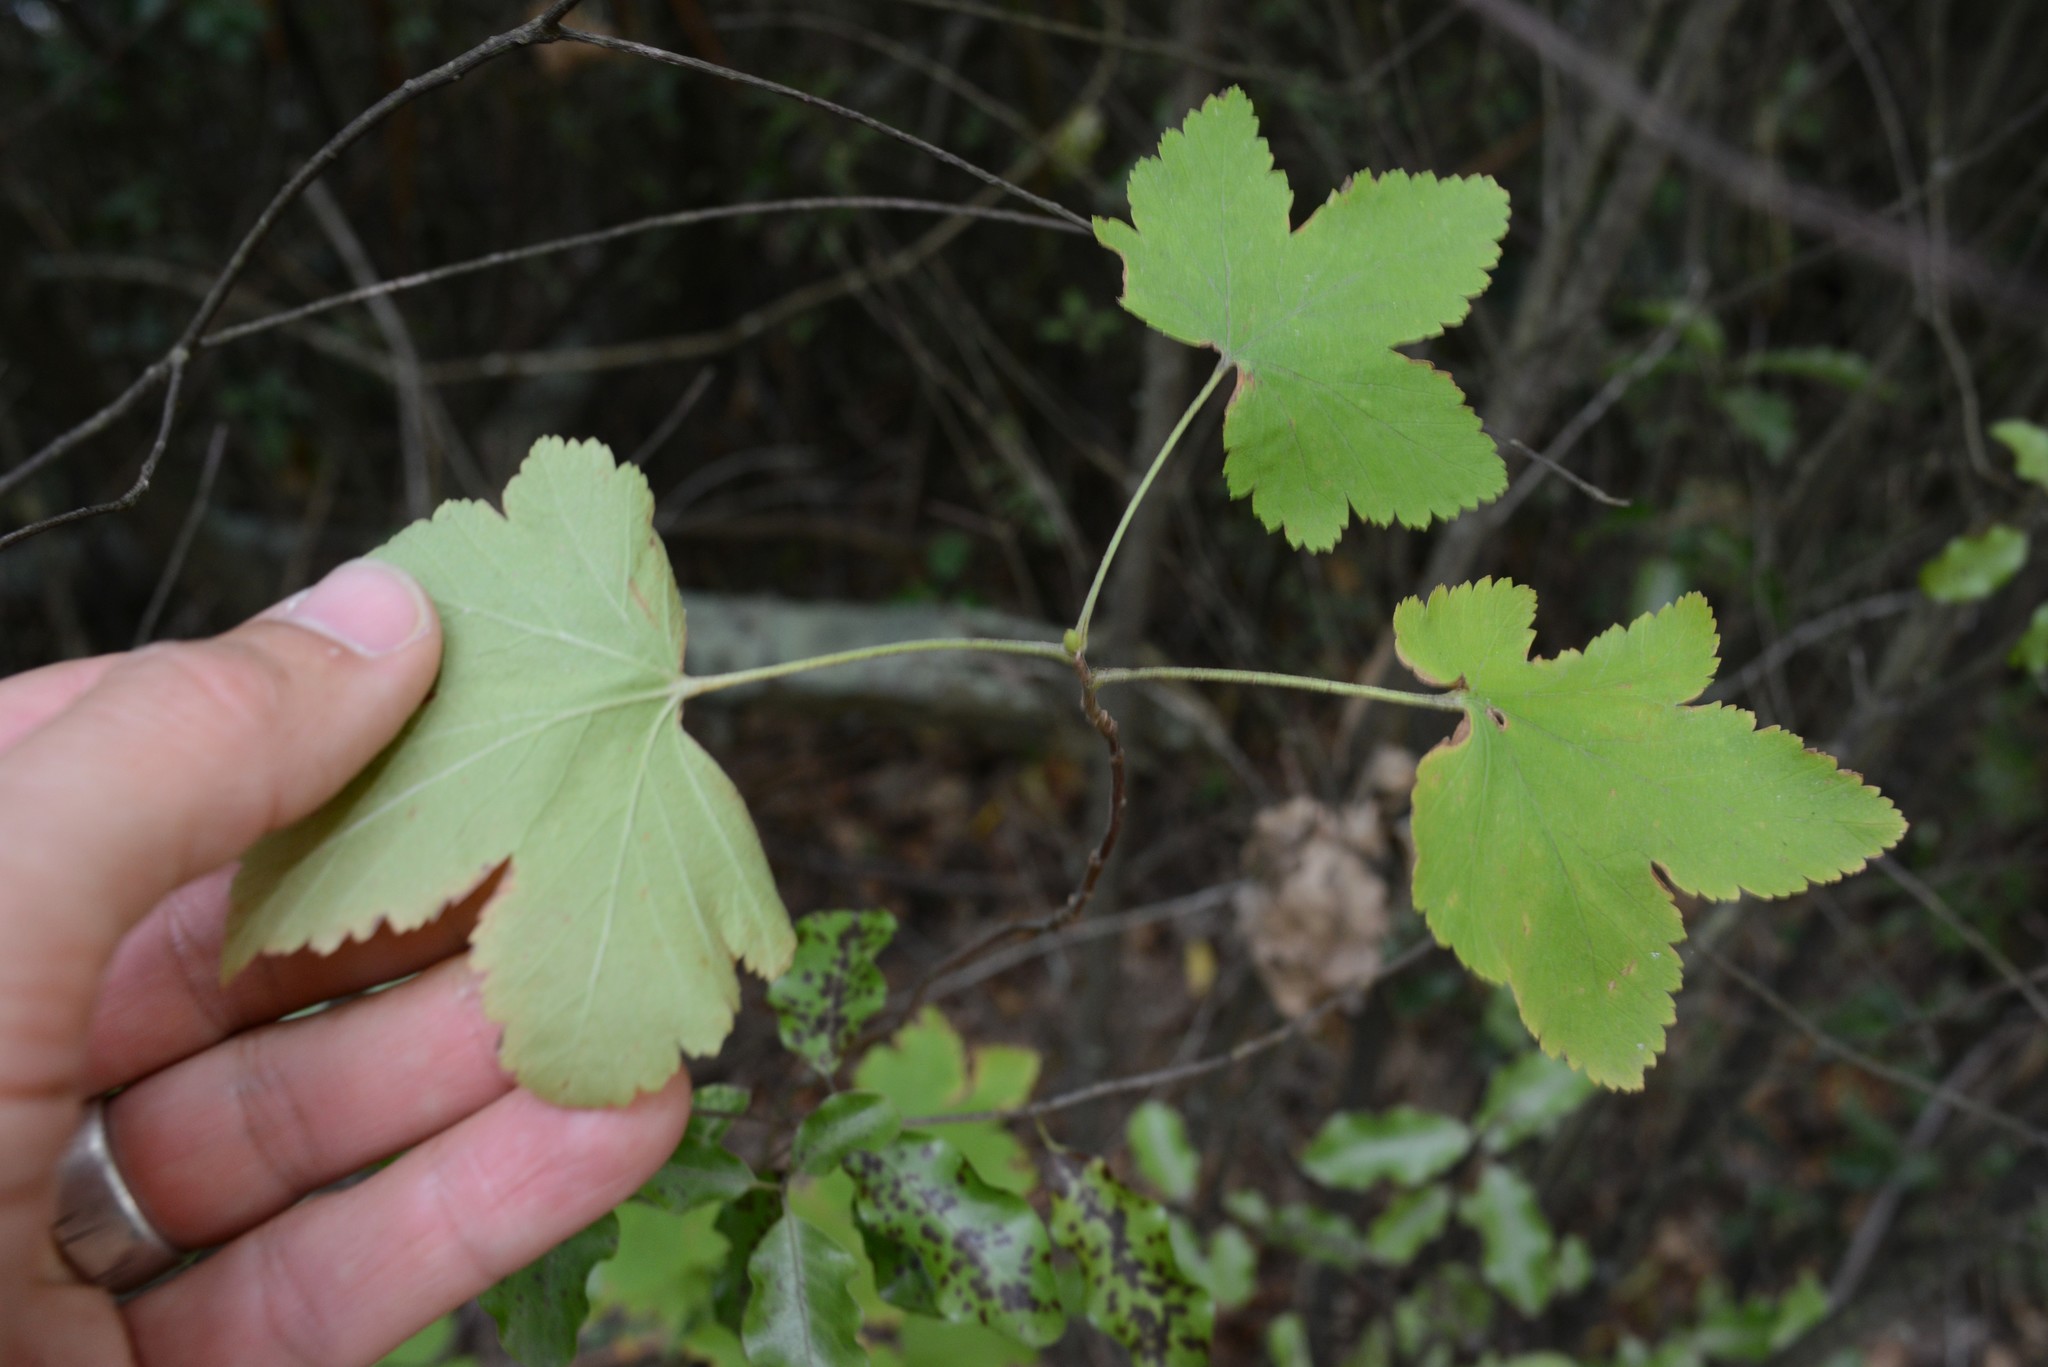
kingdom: Plantae
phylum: Tracheophyta
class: Magnoliopsida
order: Saxifragales
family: Grossulariaceae
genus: Ribes
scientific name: Ribes sanguineum
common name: Flowering currant
